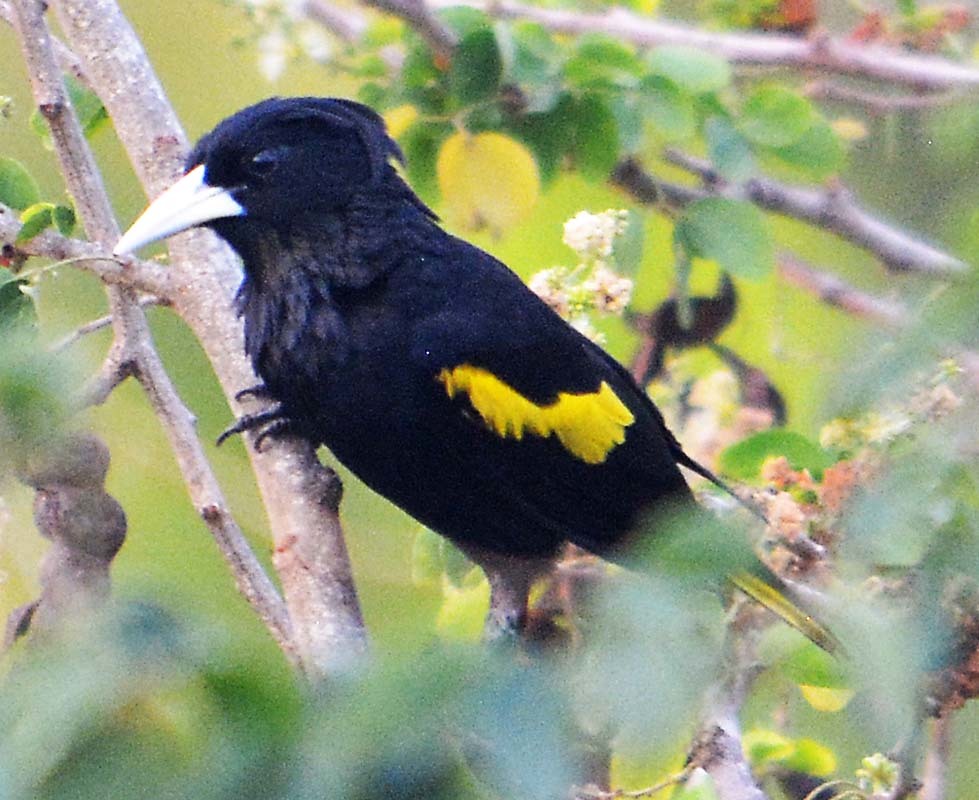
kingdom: Animalia
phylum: Chordata
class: Aves
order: Passeriformes
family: Icteridae
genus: Cacicus
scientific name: Cacicus melanicterus
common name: Yellow-winged cacique
